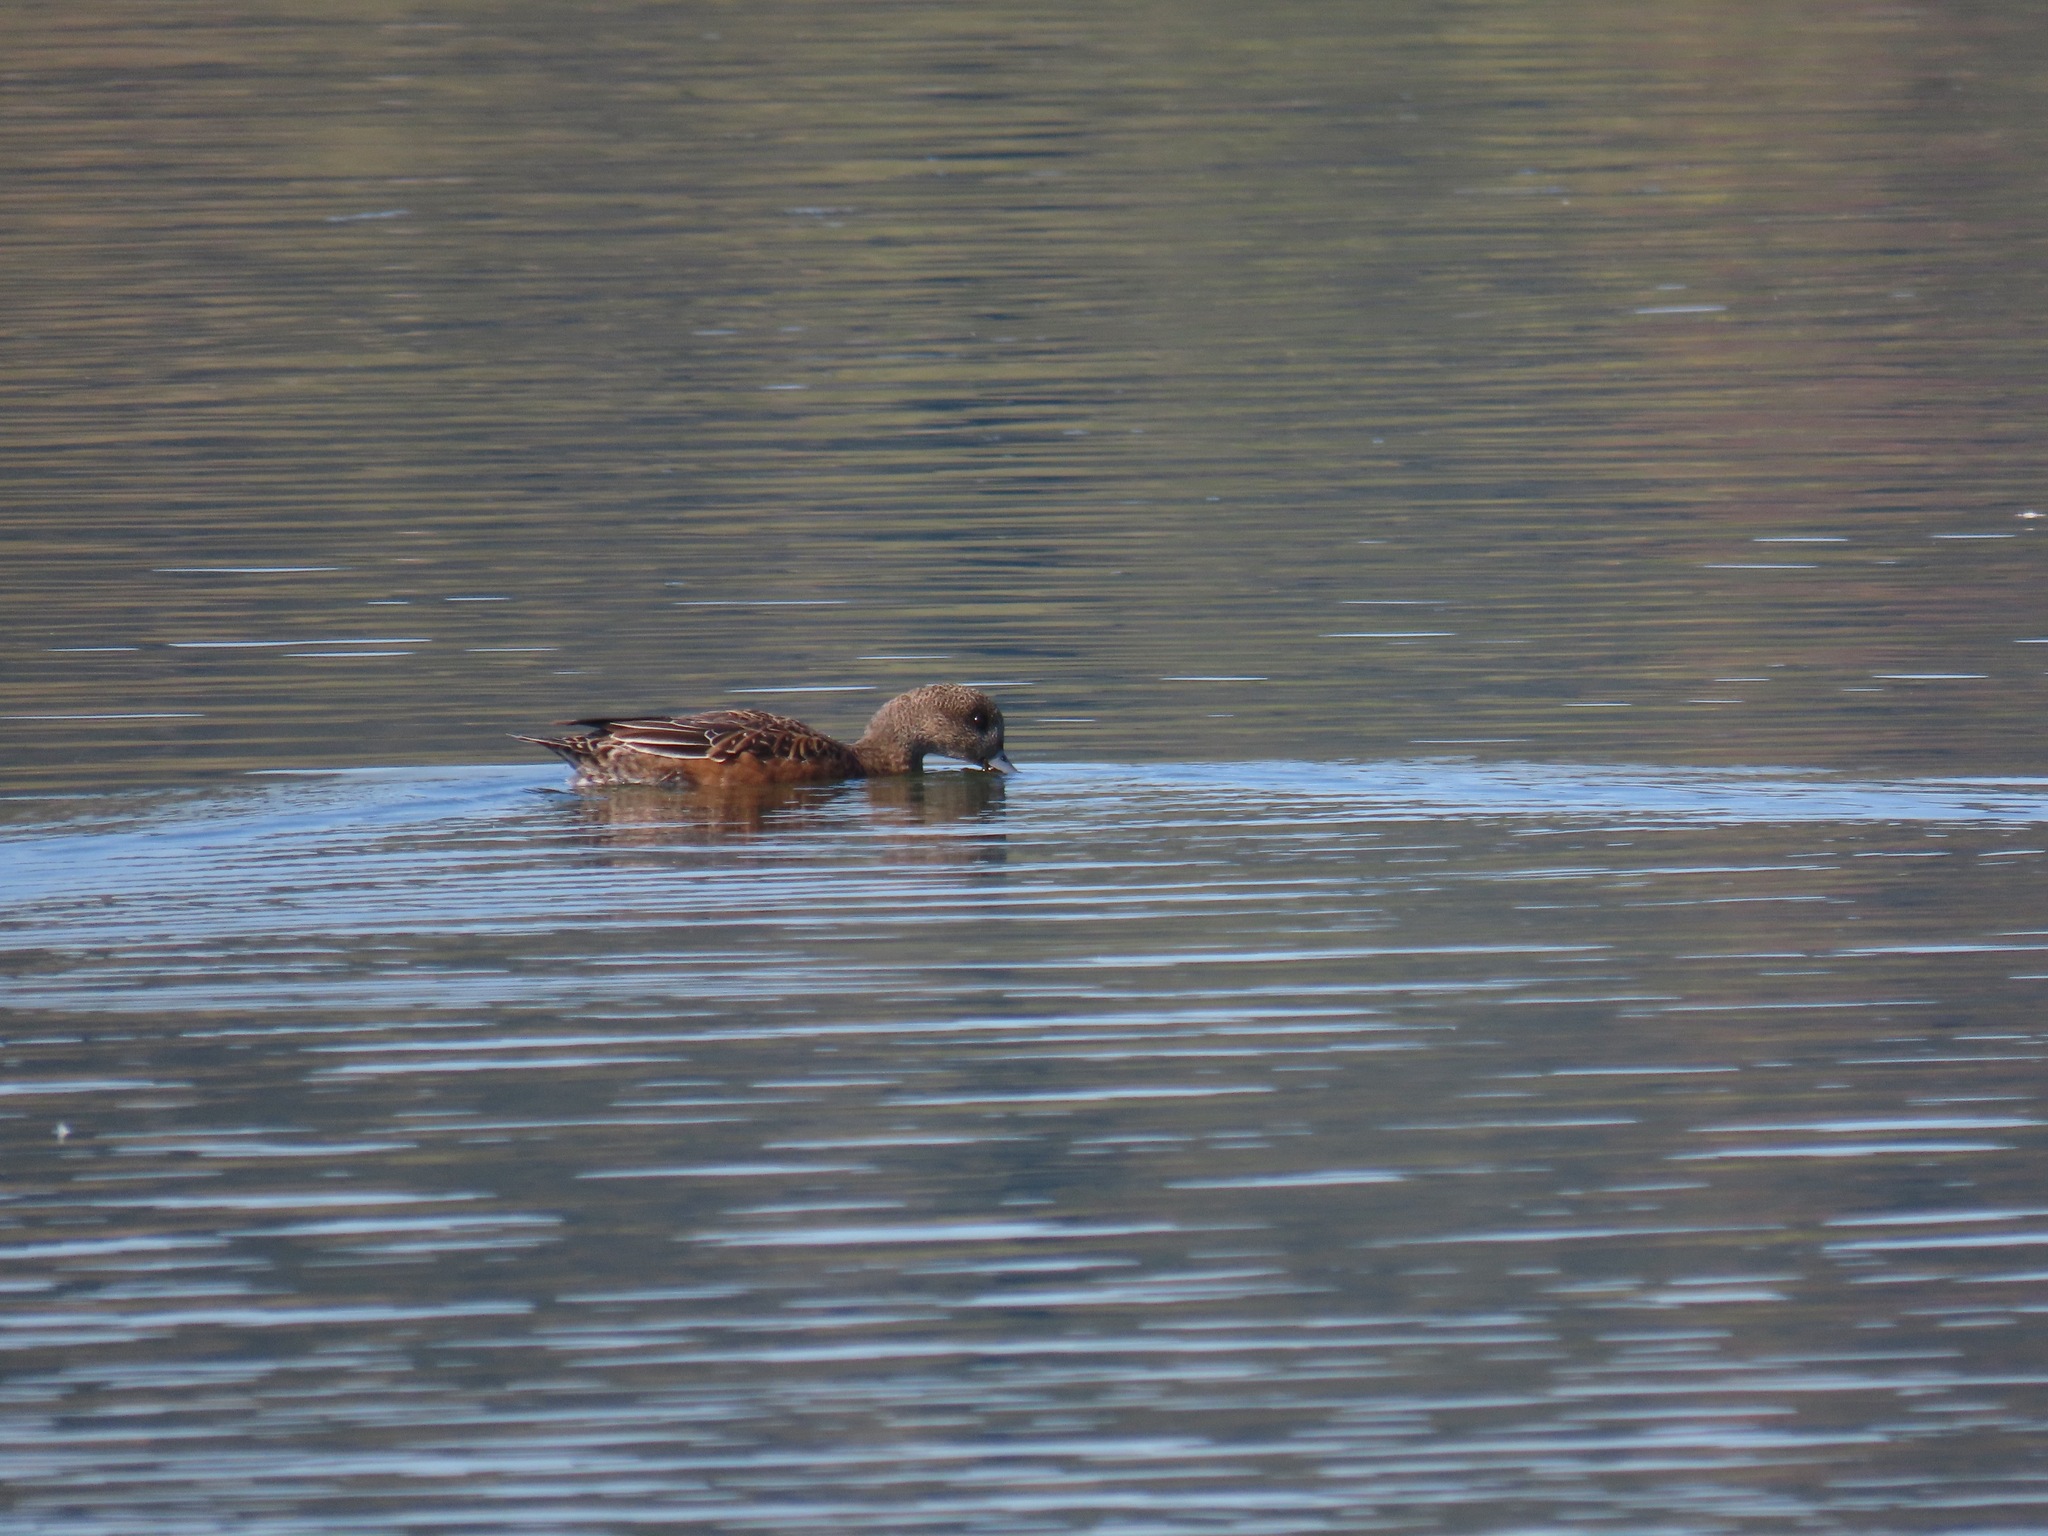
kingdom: Animalia
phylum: Chordata
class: Aves
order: Anseriformes
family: Anatidae
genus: Mareca
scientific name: Mareca americana
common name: American wigeon
